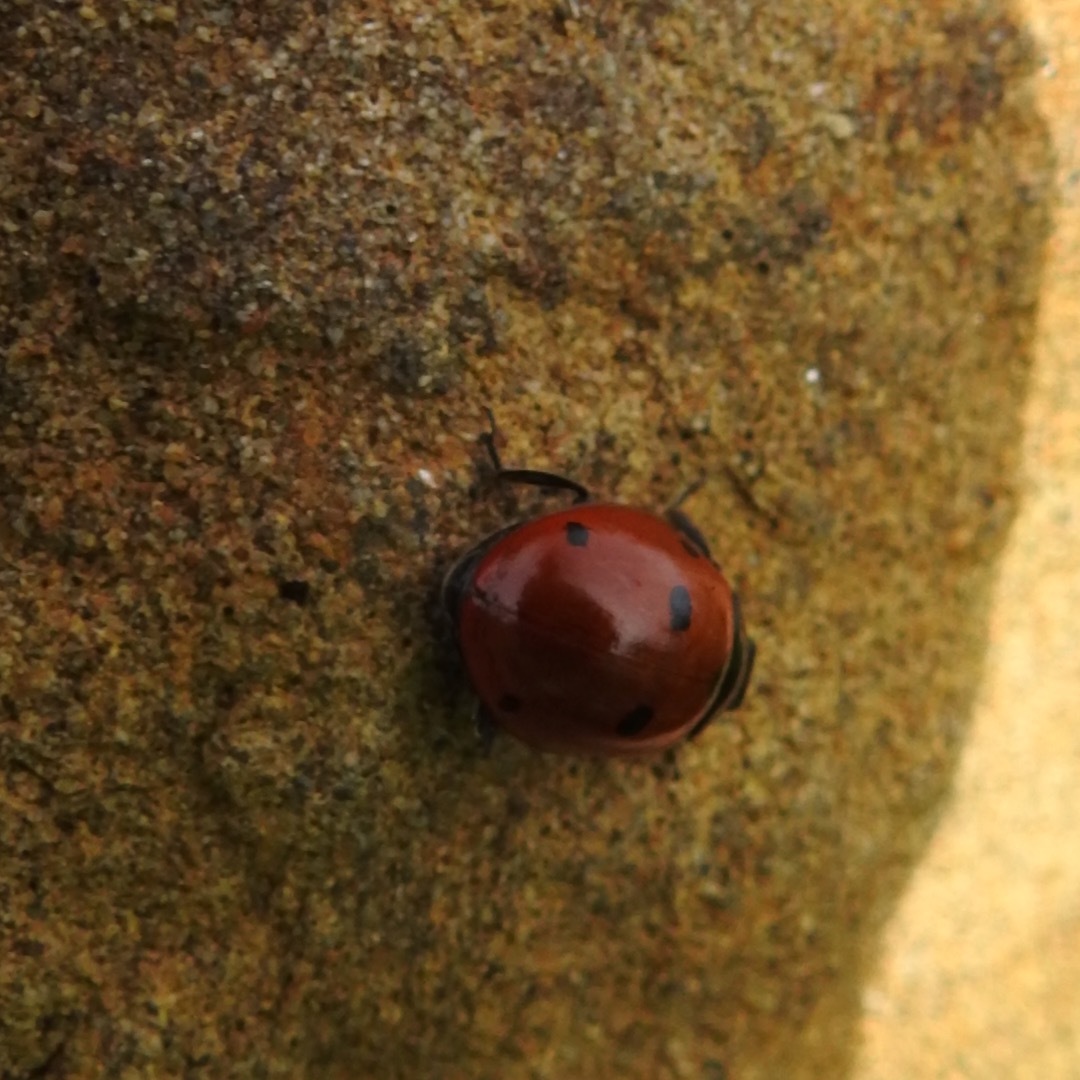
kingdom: Animalia
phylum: Arthropoda
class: Insecta
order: Coleoptera
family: Coccinellidae
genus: Coccinella
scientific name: Coccinella septempunctata
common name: Sevenspotted lady beetle
